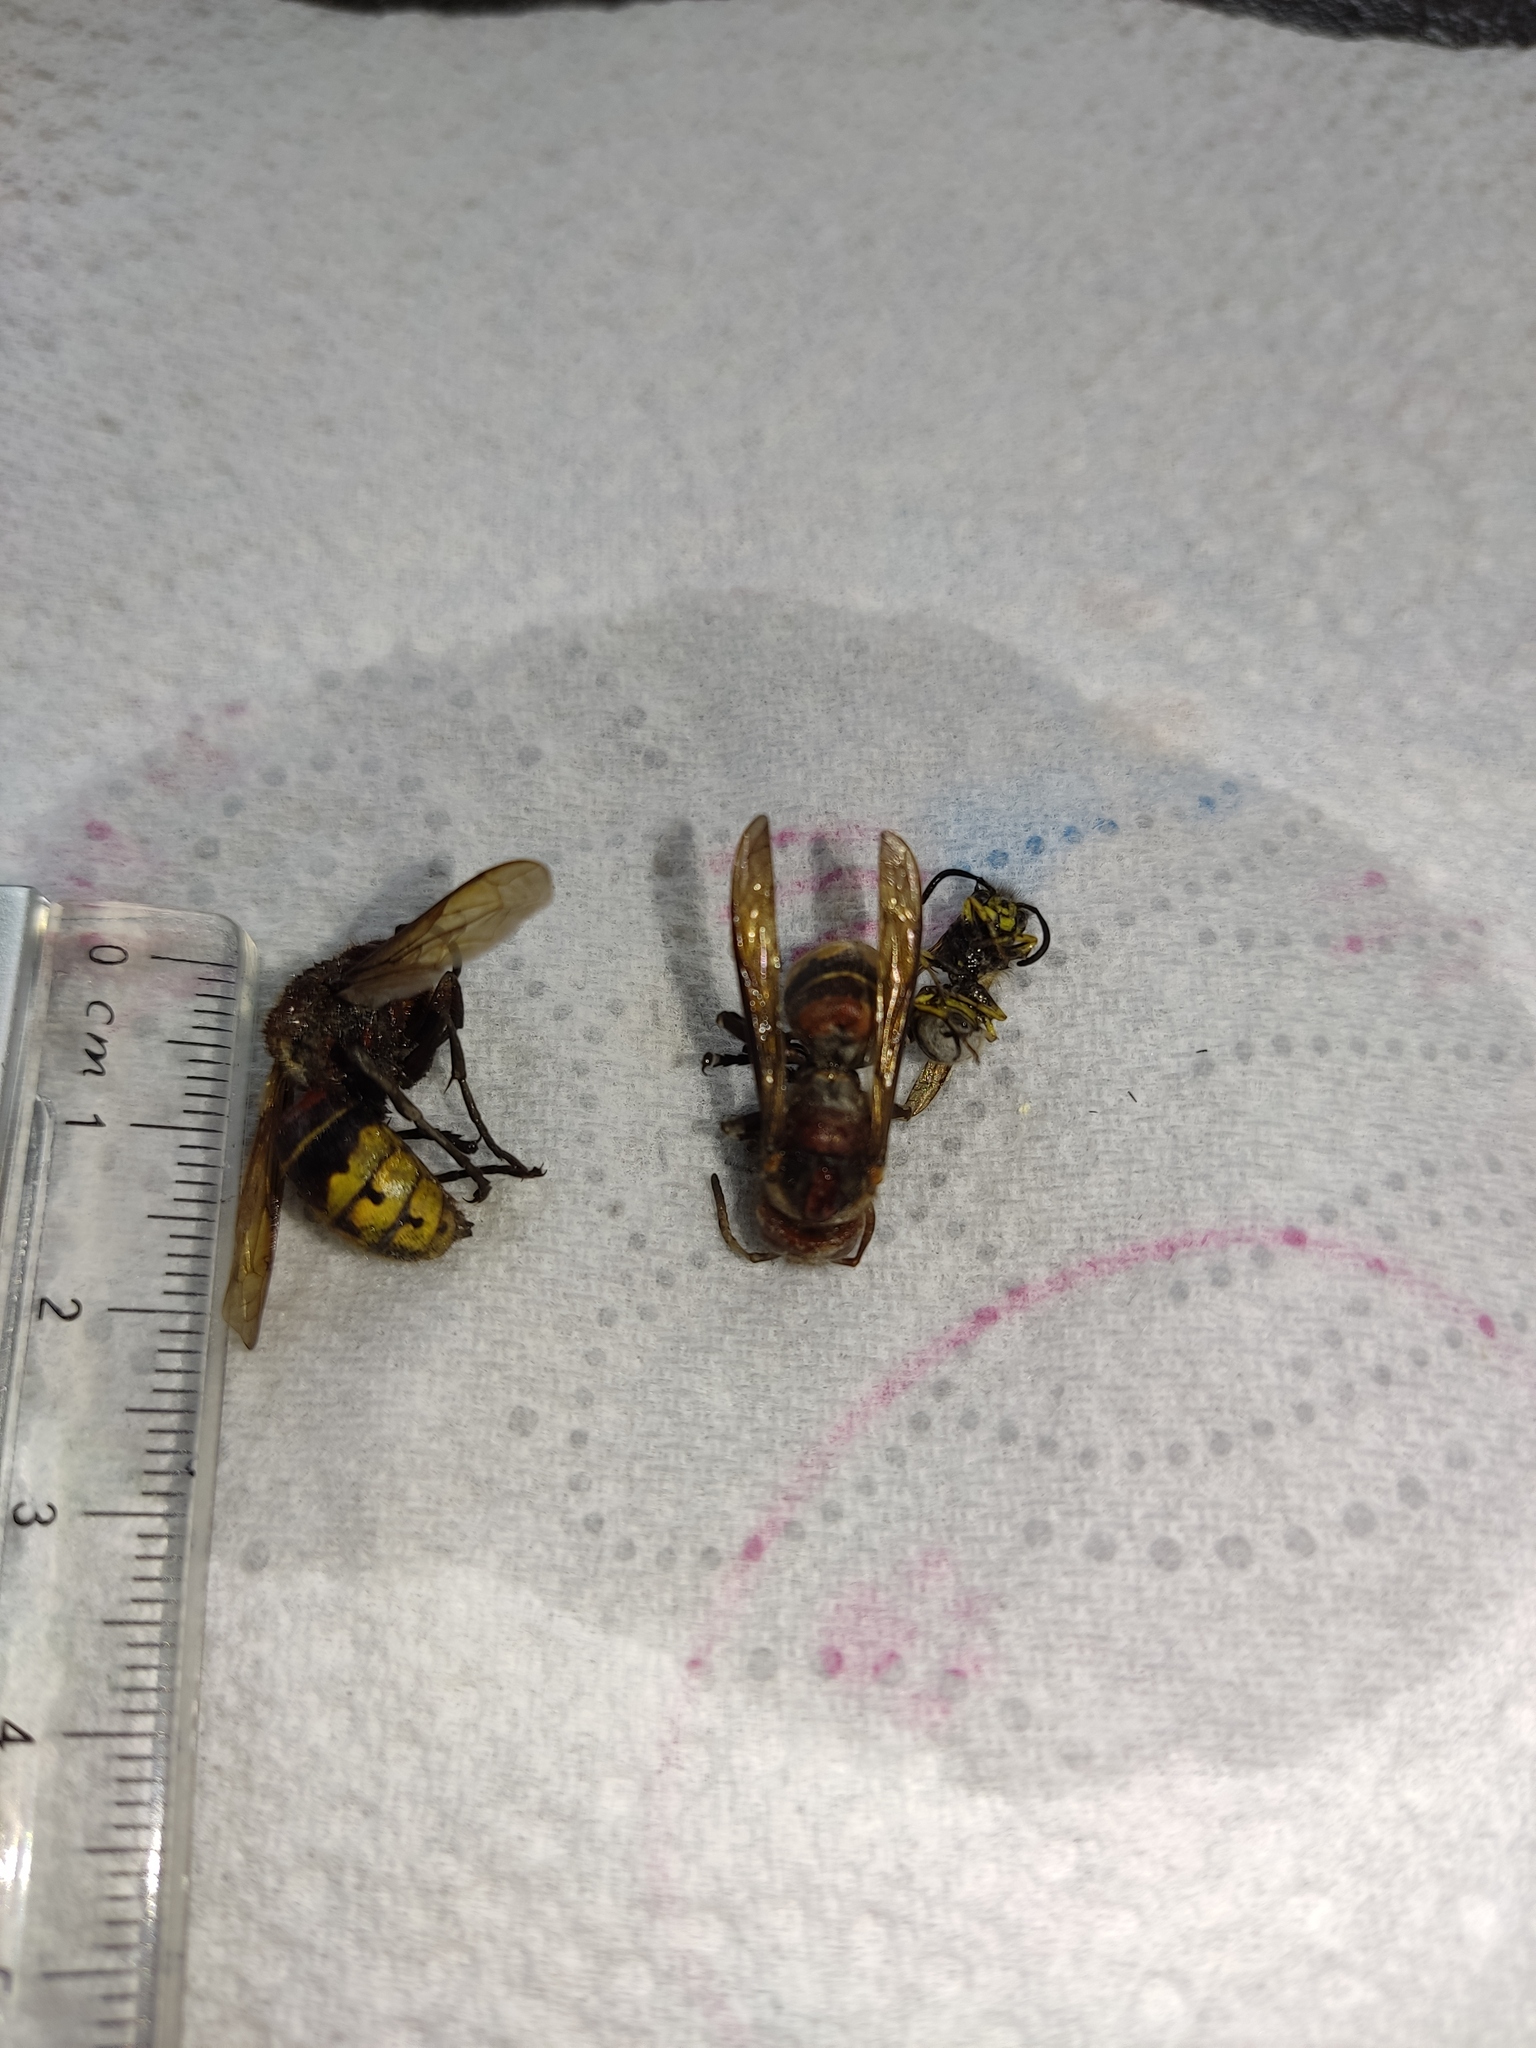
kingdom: Animalia
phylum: Arthropoda
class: Insecta
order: Hymenoptera
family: Vespidae
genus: Vespa
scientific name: Vespa crabro
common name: Hornet
